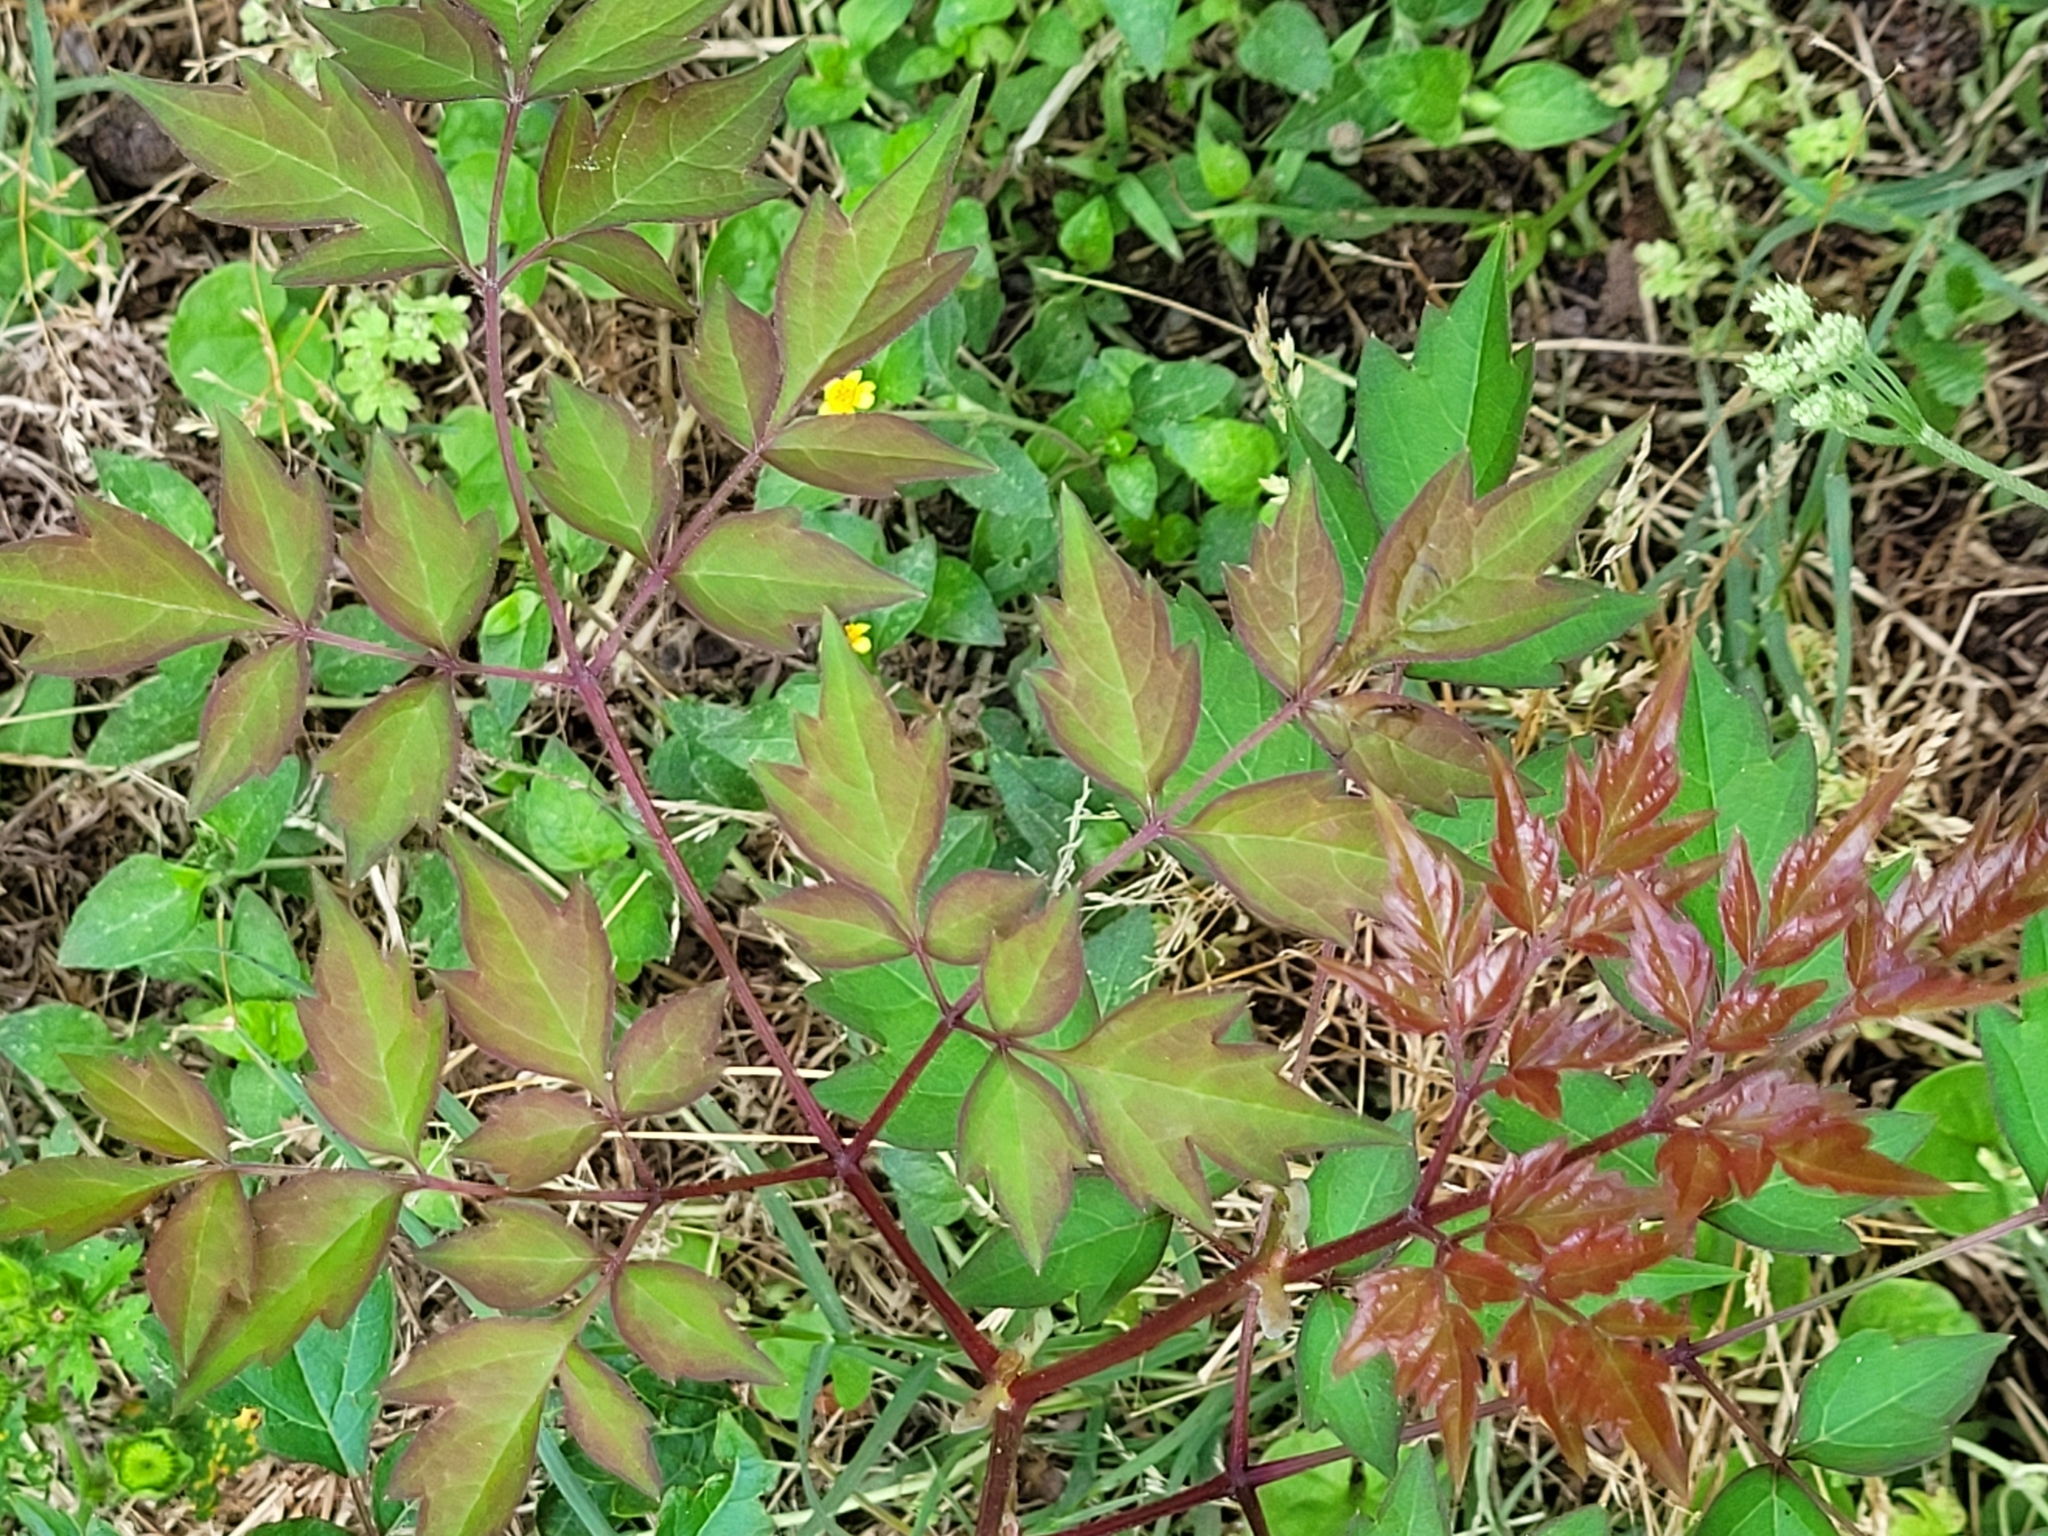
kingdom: Plantae
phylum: Tracheophyta
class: Magnoliopsida
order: Vitales
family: Vitaceae
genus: Nekemias
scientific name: Nekemias arborea
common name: Peppervine
